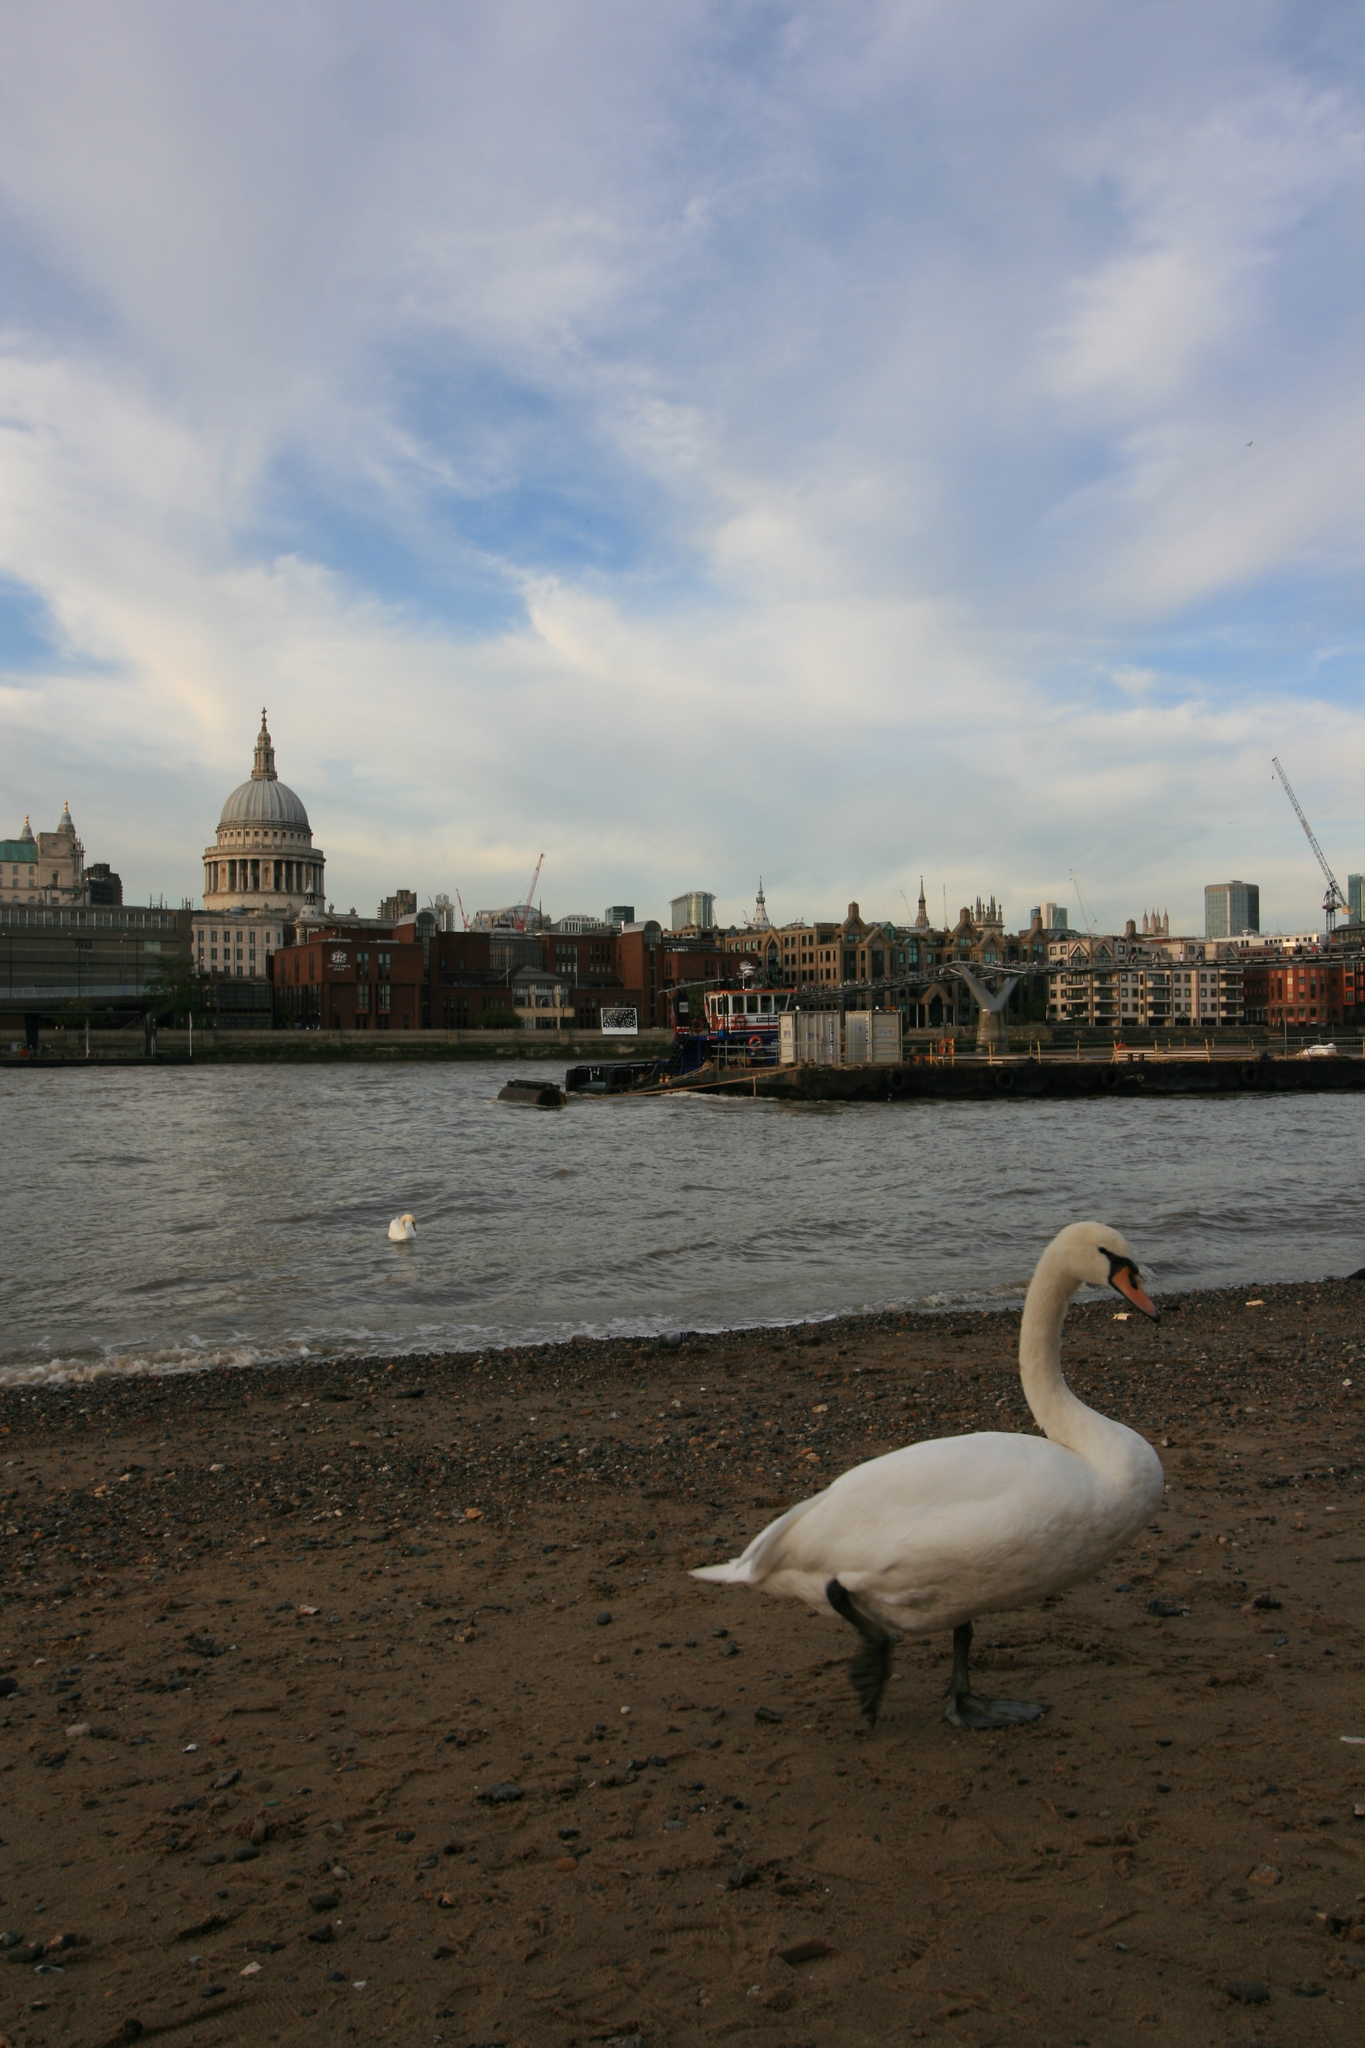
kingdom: Animalia
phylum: Chordata
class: Aves
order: Anseriformes
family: Anatidae
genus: Cygnus
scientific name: Cygnus olor
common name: Mute swan
